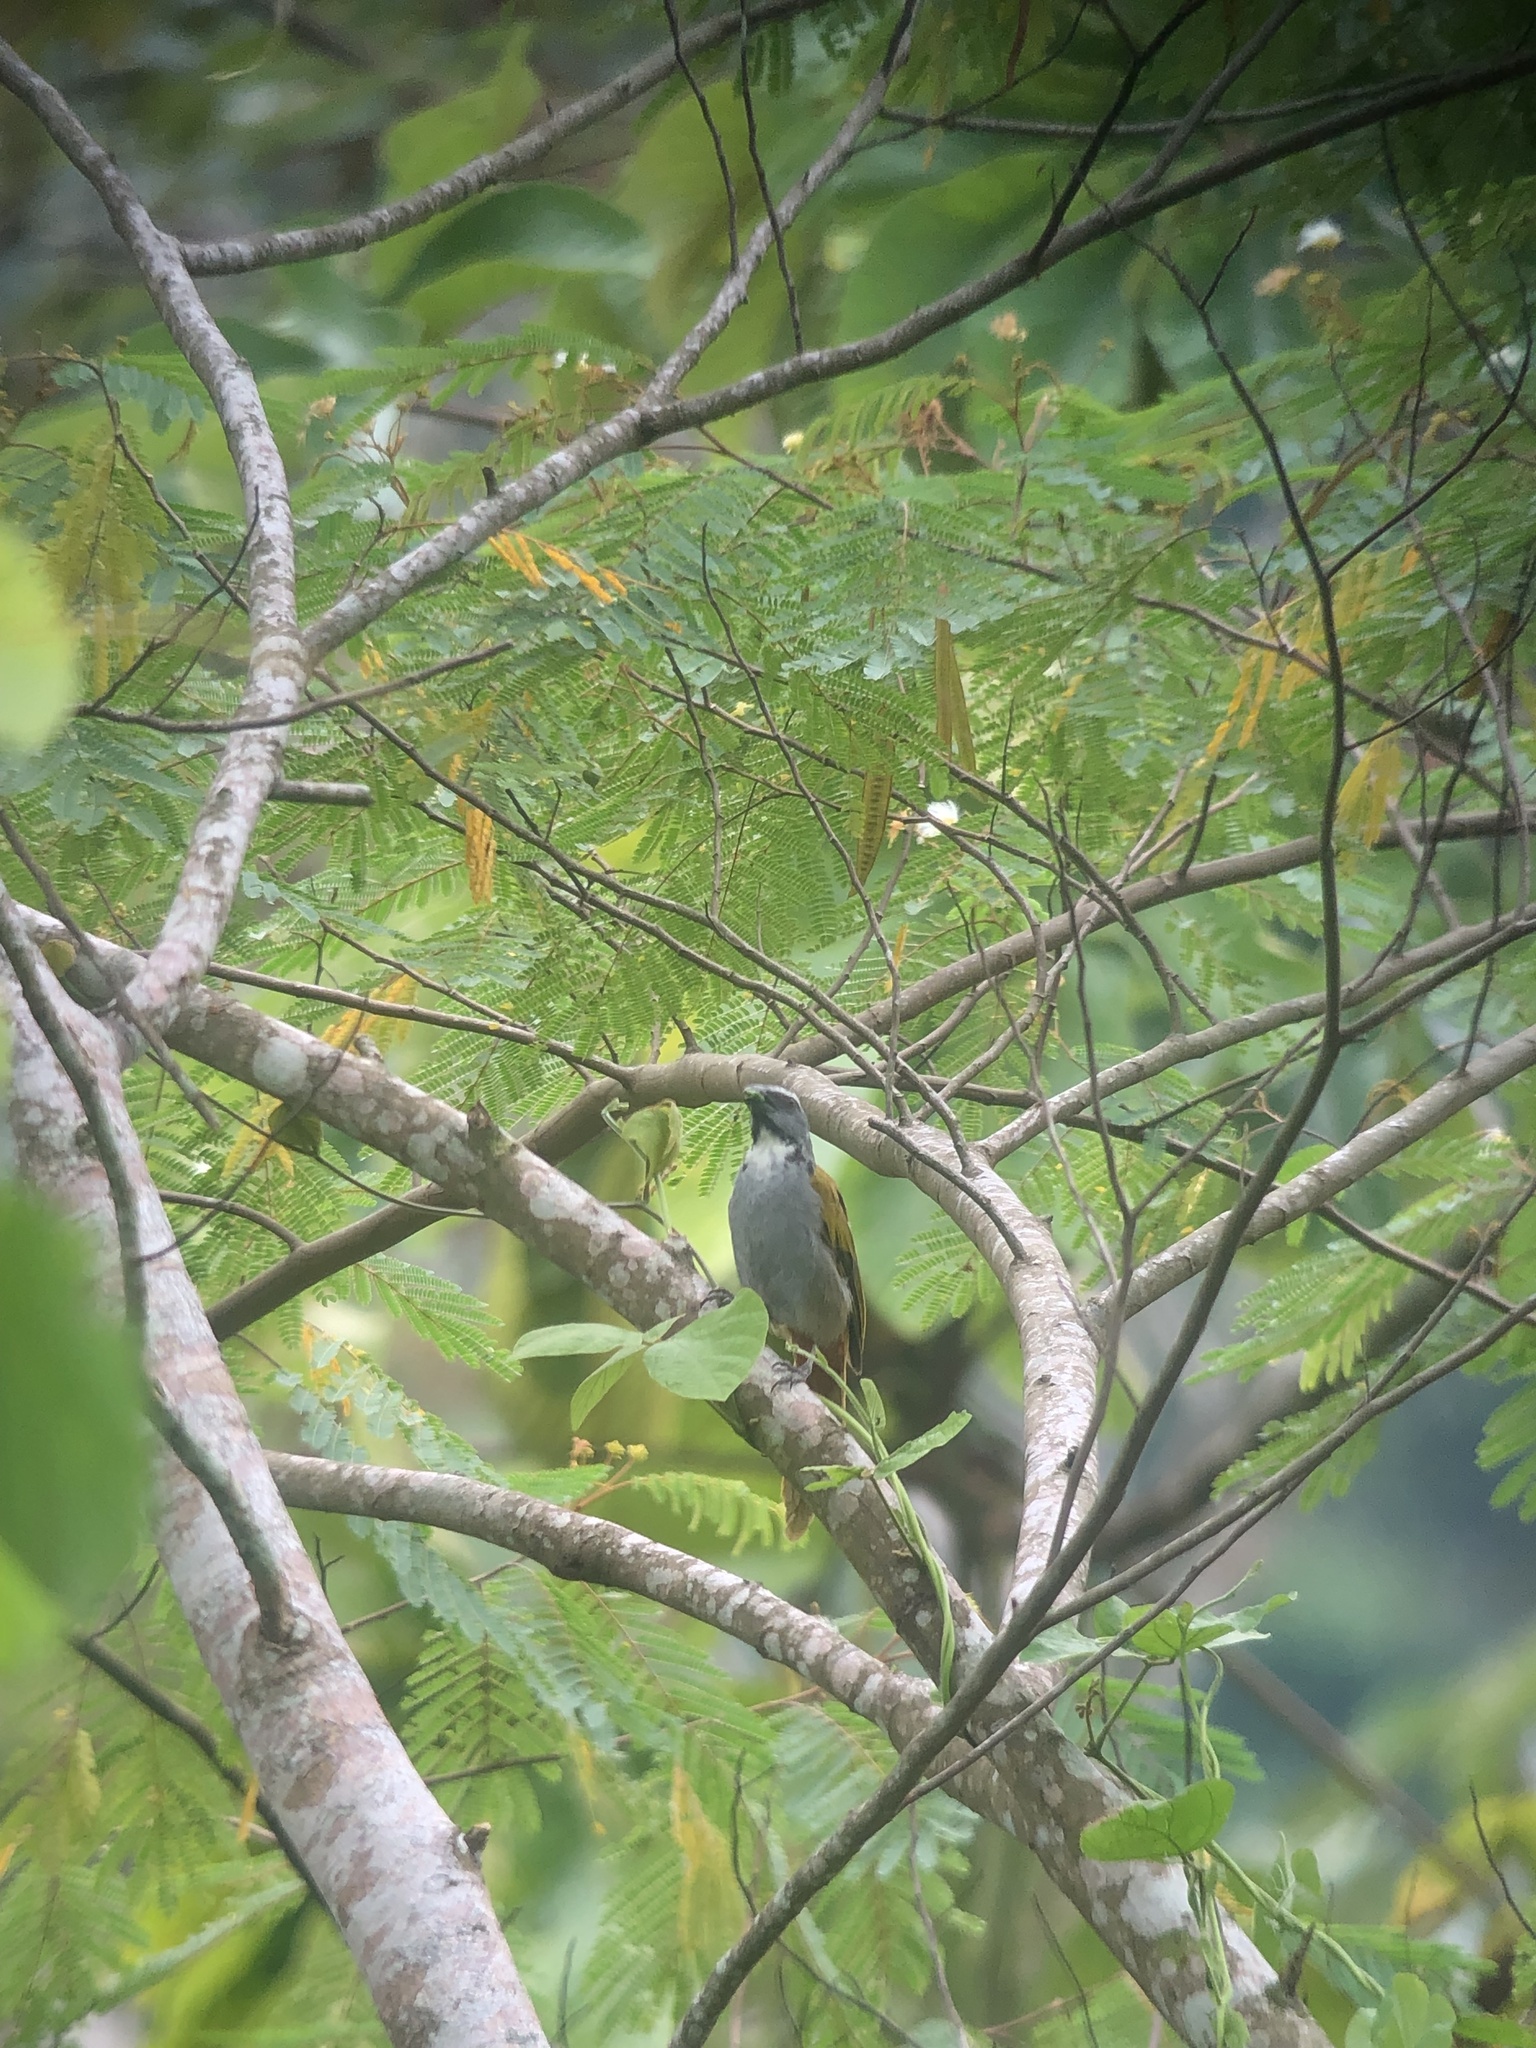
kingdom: Animalia
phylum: Chordata
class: Aves
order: Passeriformes
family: Thraupidae
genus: Saltator
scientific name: Saltator atriceps
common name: Black-headed saltator
